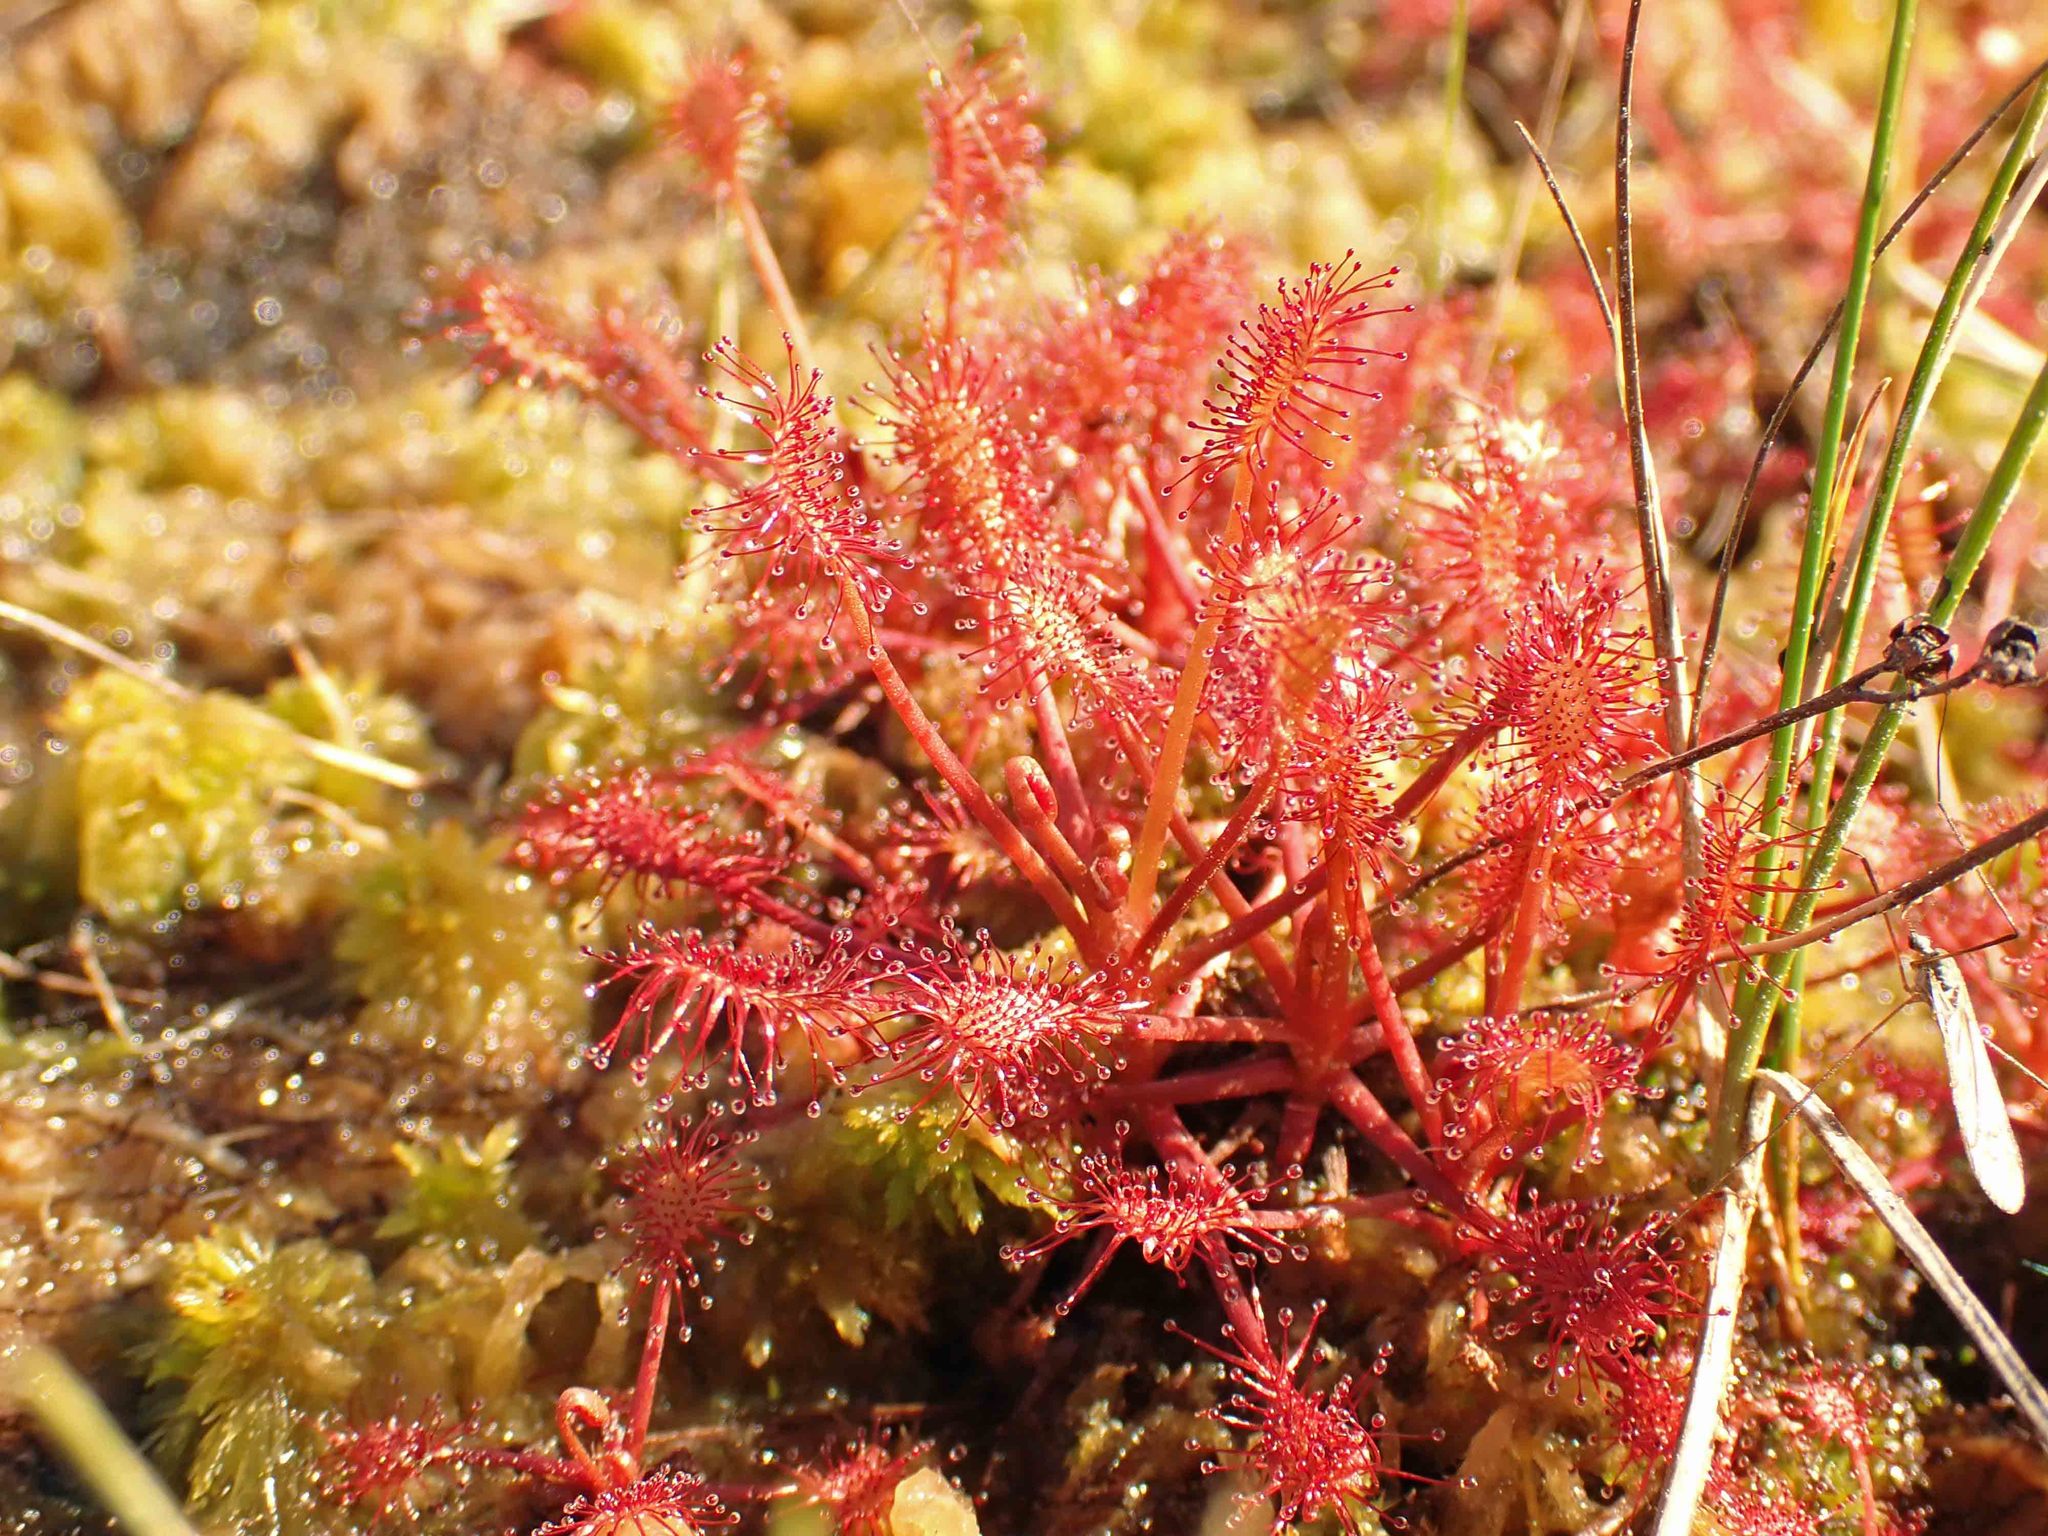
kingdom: Plantae
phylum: Tracheophyta
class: Magnoliopsida
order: Caryophyllales
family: Droseraceae
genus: Drosera
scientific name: Drosera intermedia
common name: Oblong-leaved sundew
